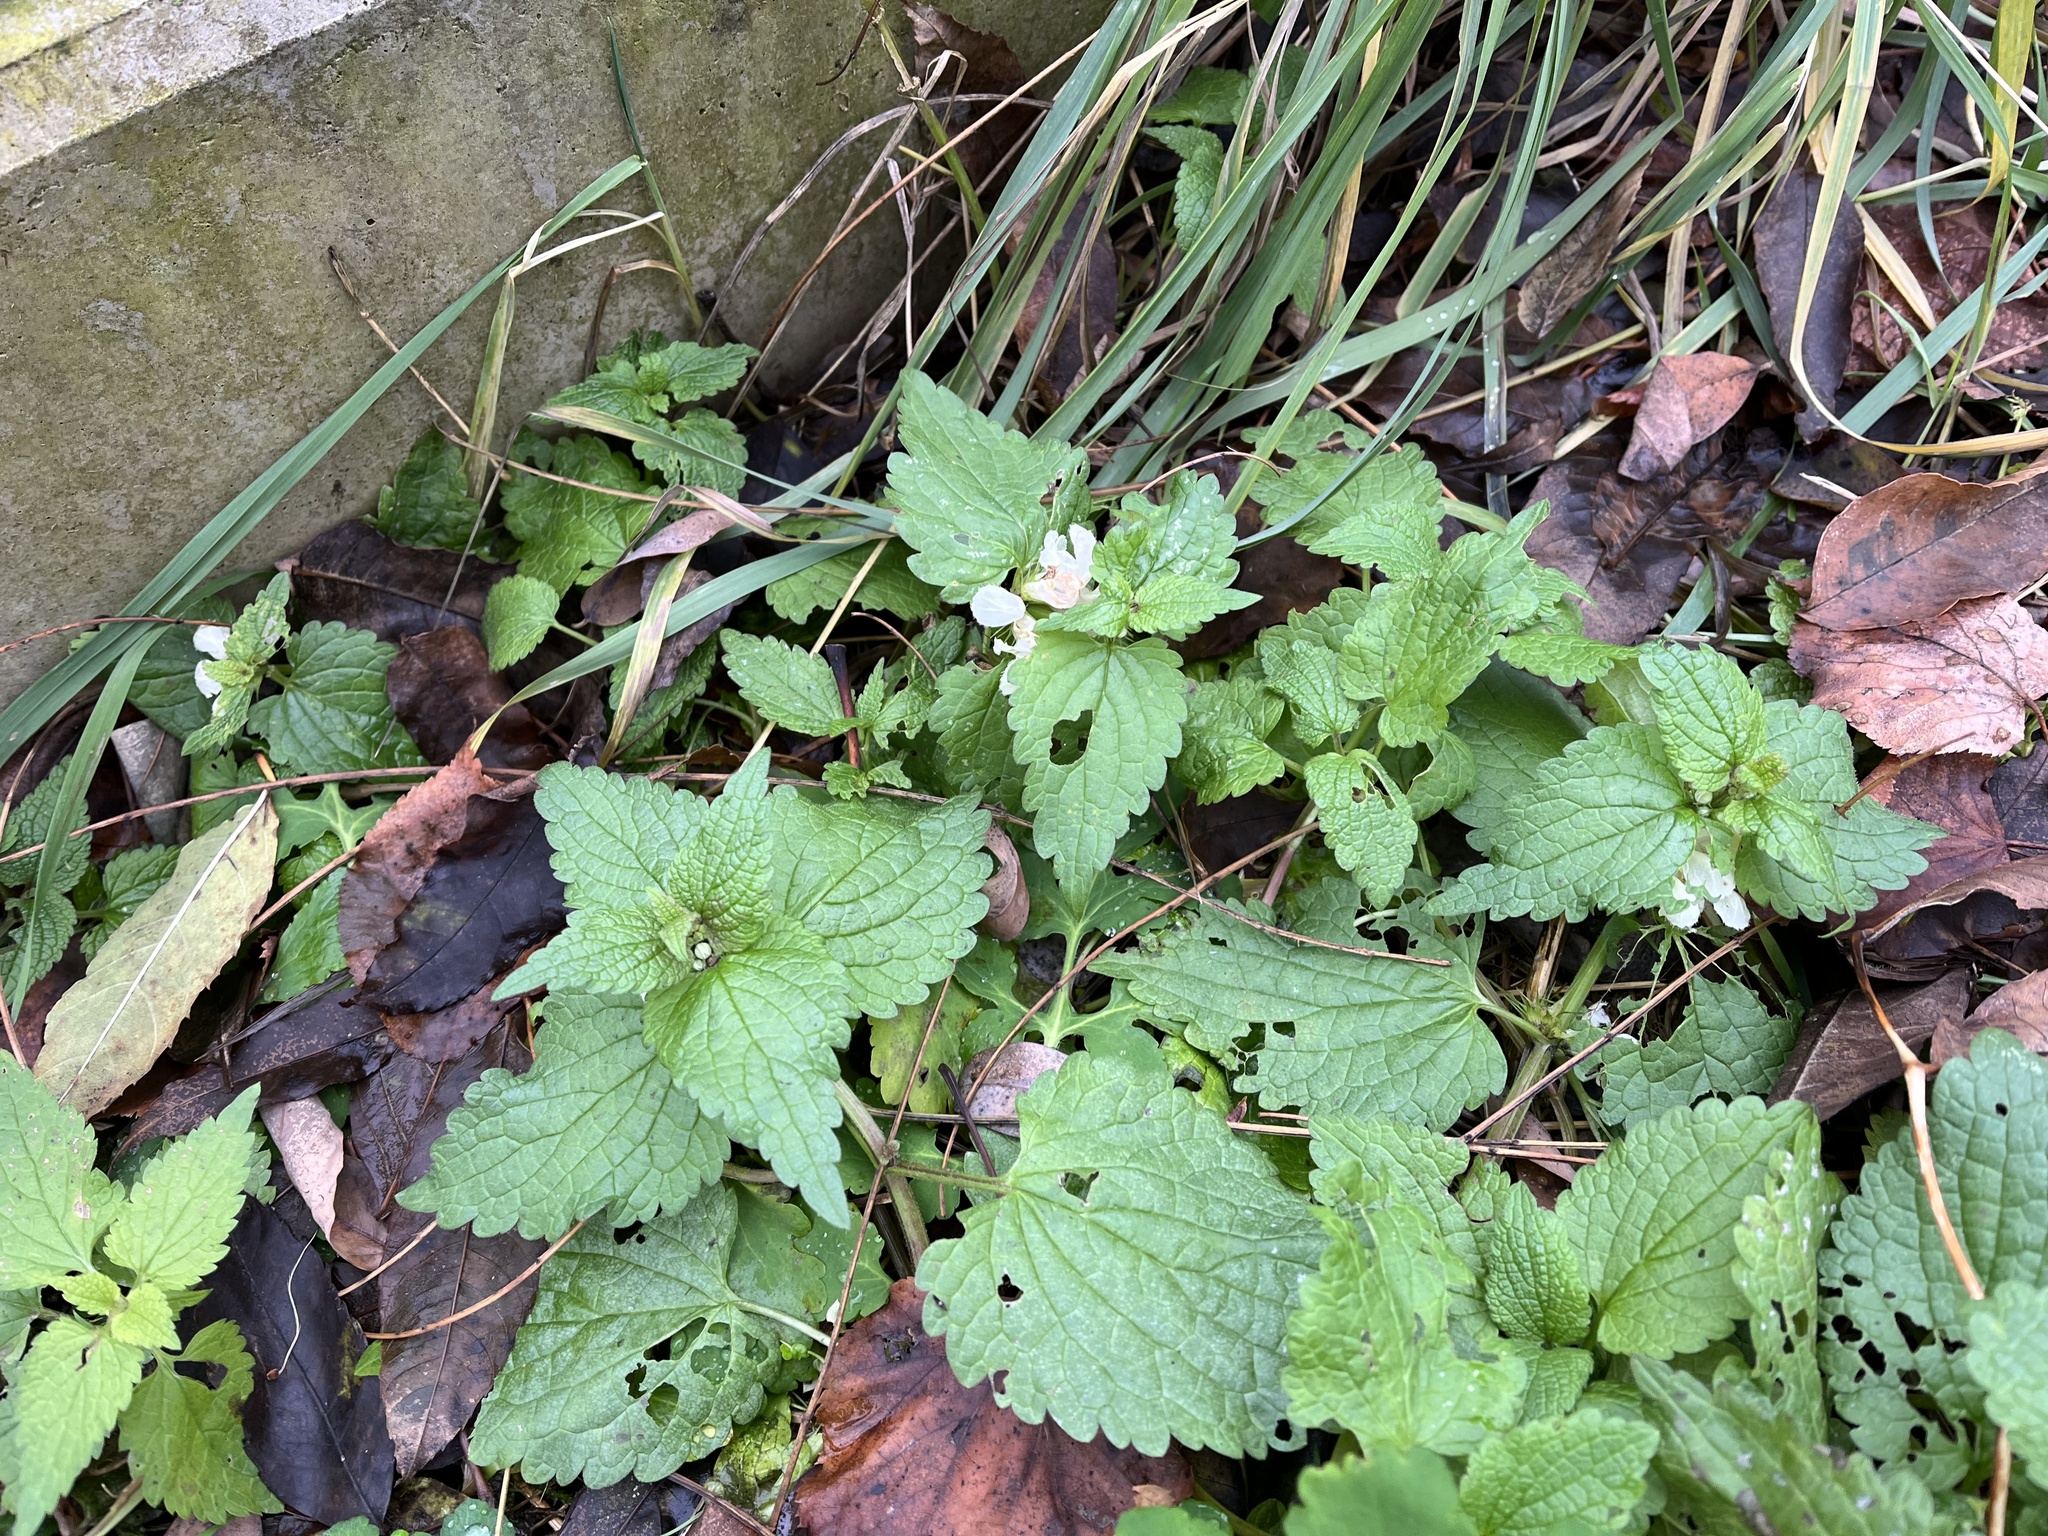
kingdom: Plantae
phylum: Tracheophyta
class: Magnoliopsida
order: Lamiales
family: Lamiaceae
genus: Lamium
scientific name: Lamium album
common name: White dead-nettle
